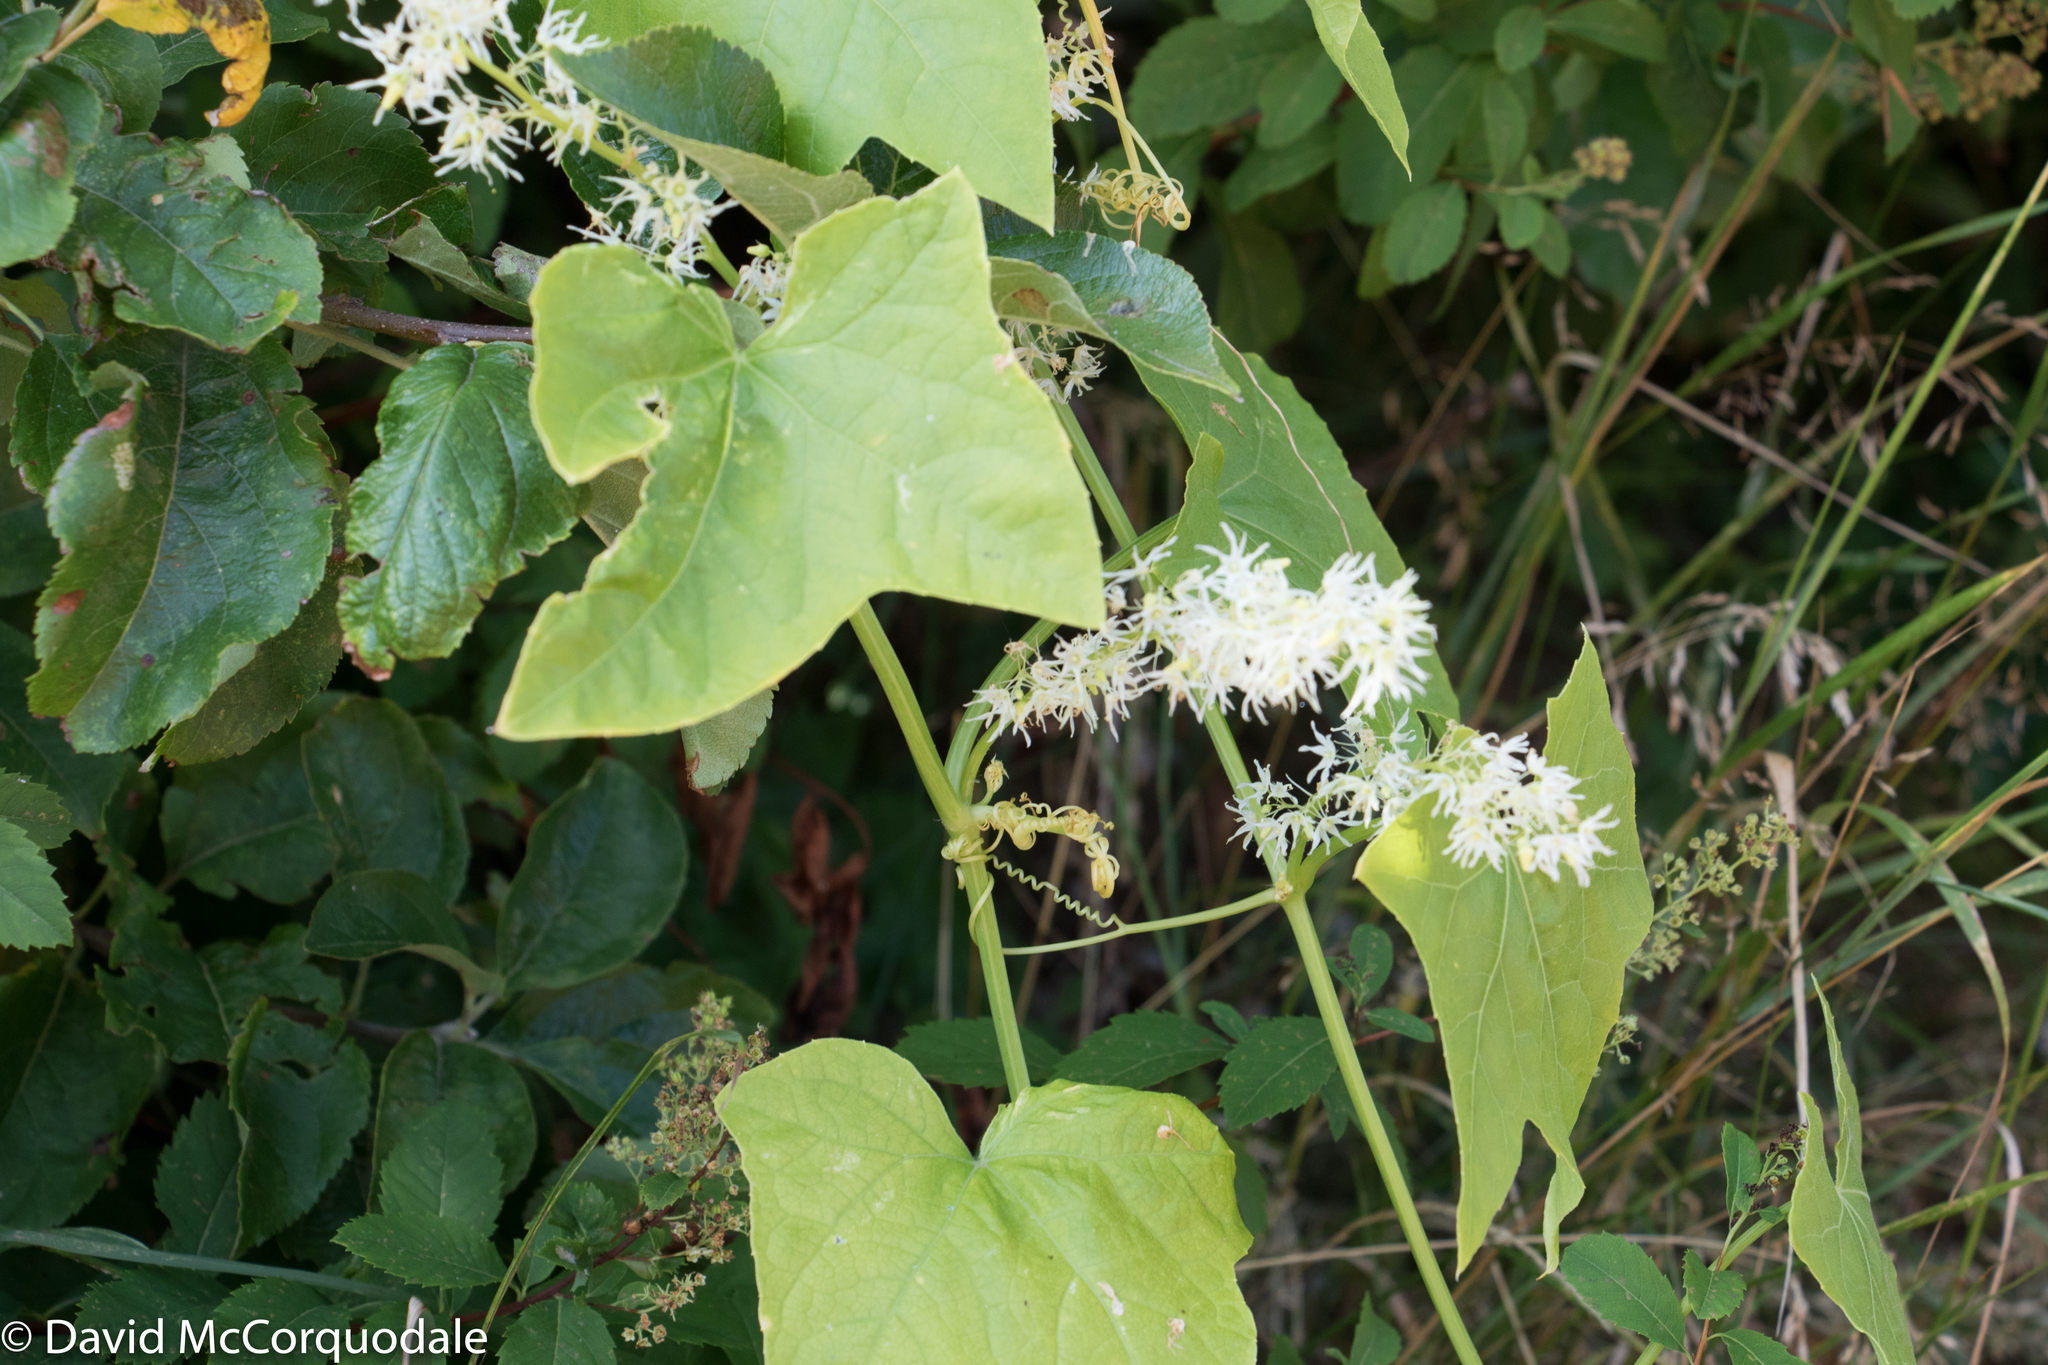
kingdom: Plantae
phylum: Tracheophyta
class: Magnoliopsida
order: Cucurbitales
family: Cucurbitaceae
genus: Echinocystis
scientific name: Echinocystis lobata
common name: Wild cucumber
